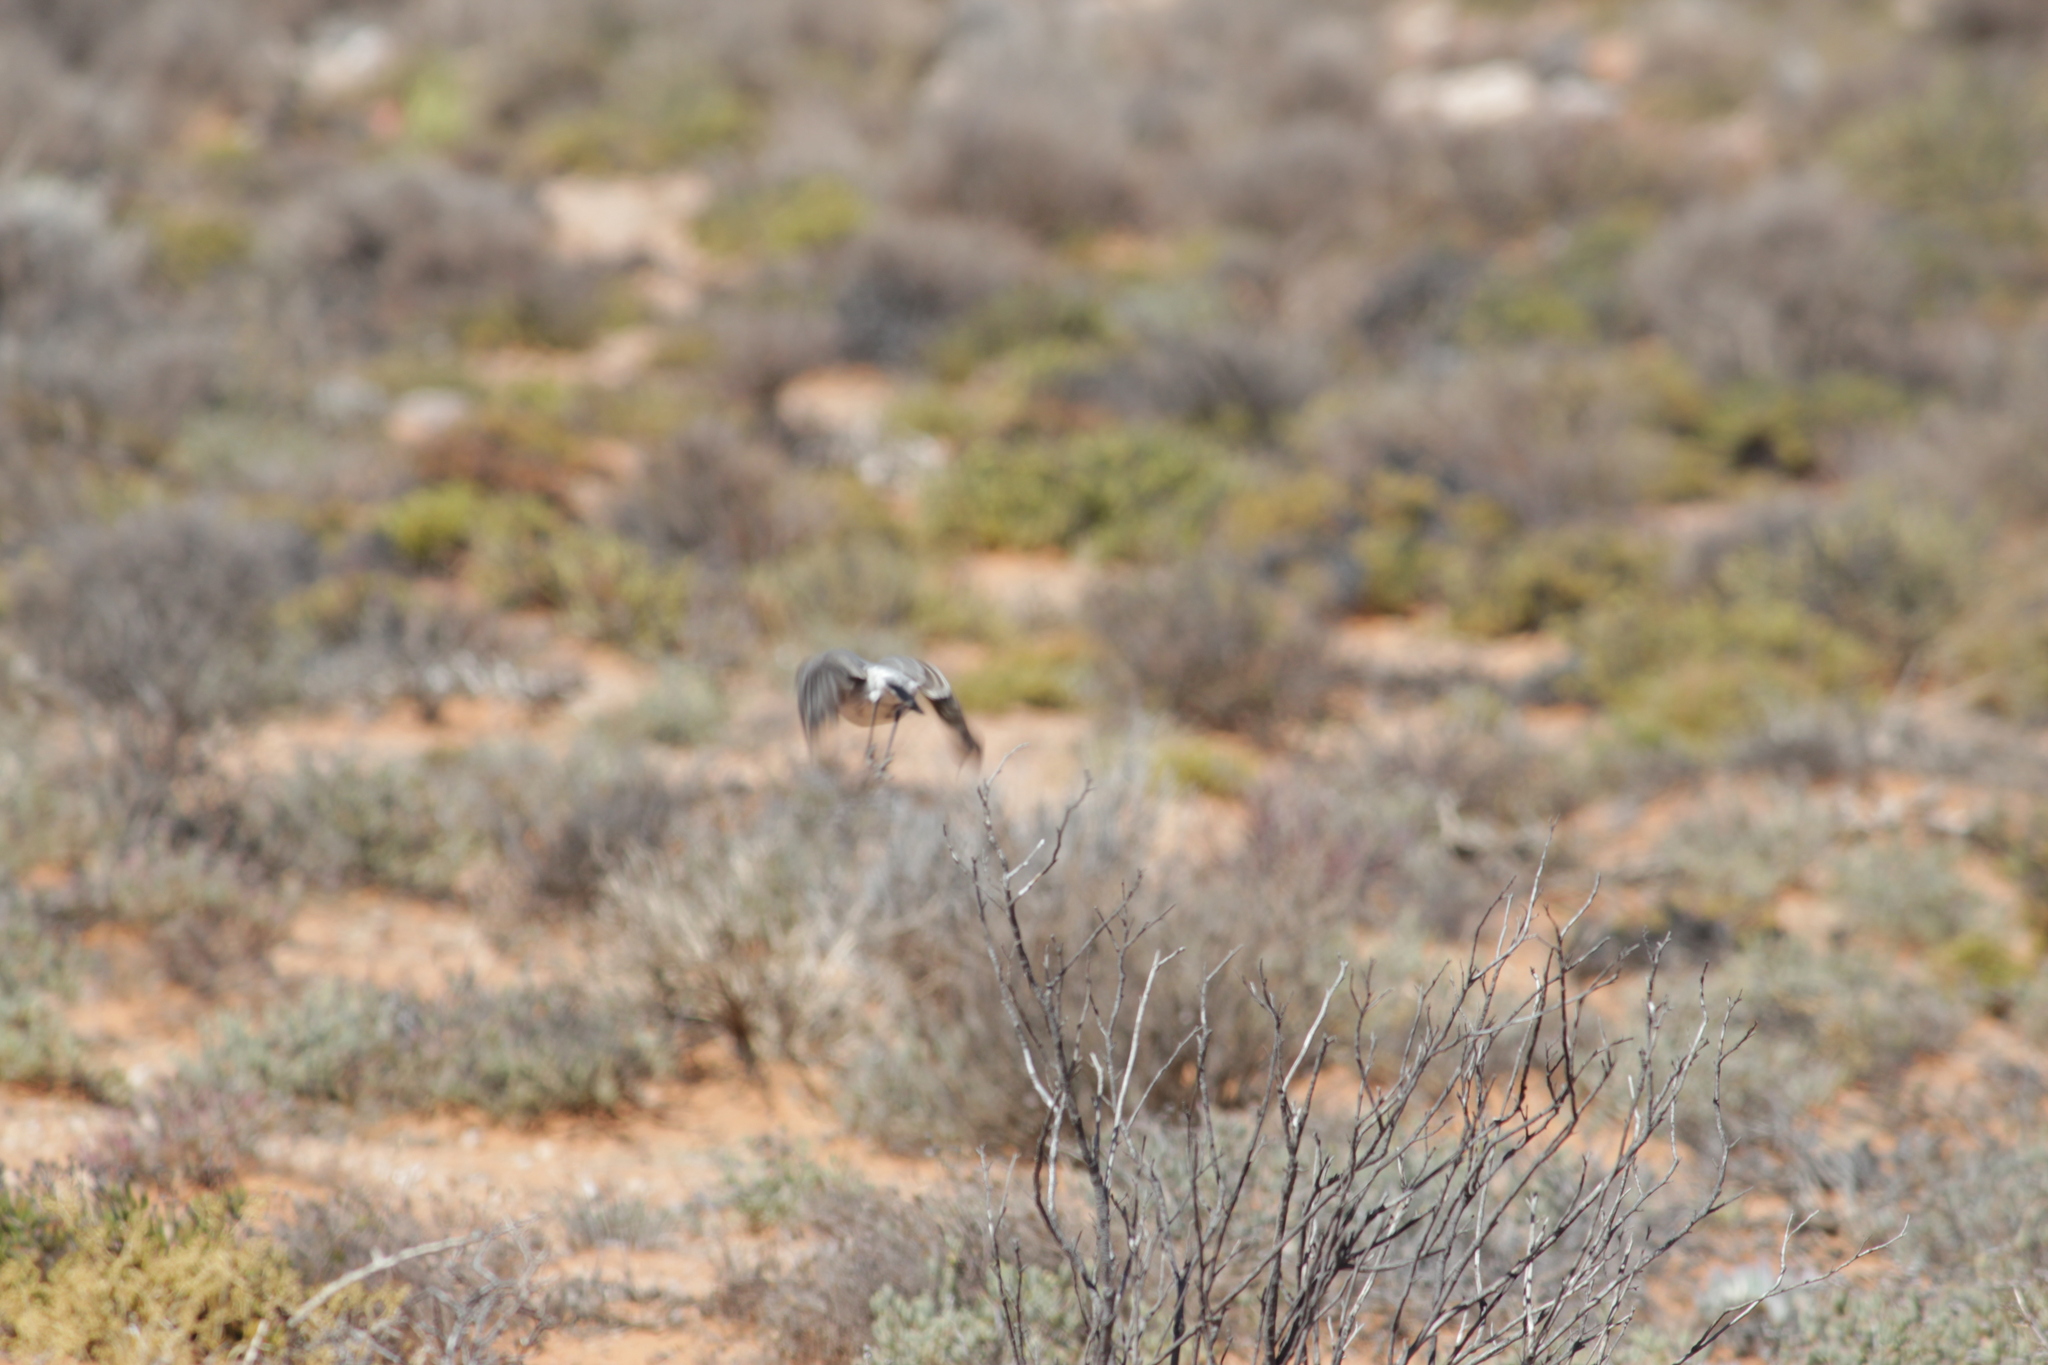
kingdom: Animalia
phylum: Chordata
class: Aves
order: Passeriformes
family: Muscicapidae
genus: Emarginata
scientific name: Emarginata schlegelii
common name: Karoo chat
